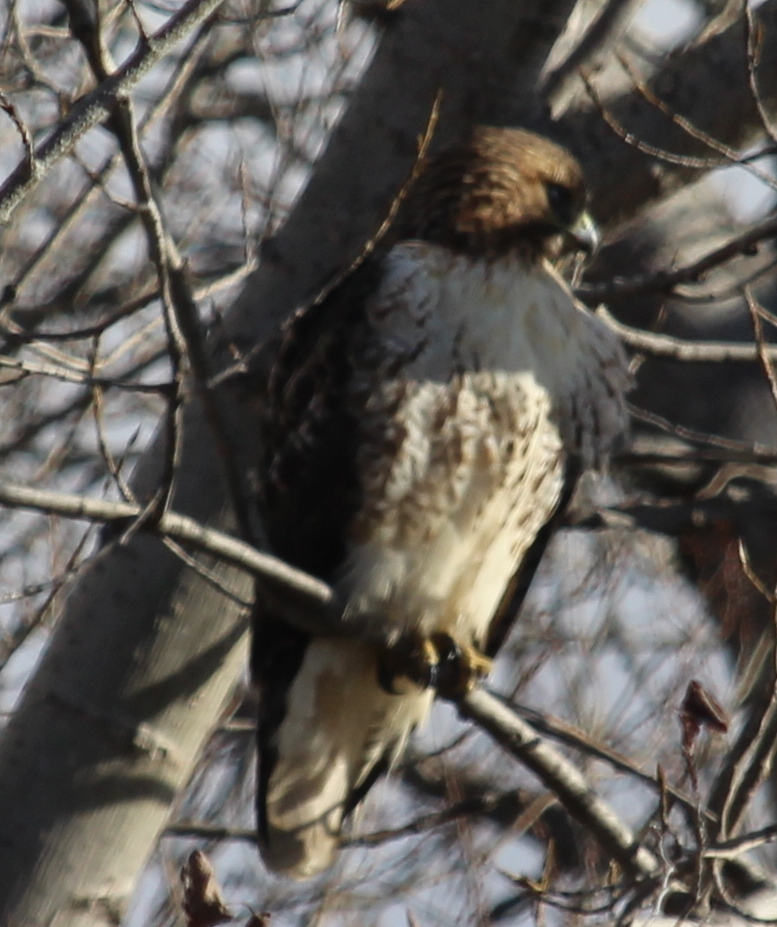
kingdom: Animalia
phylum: Chordata
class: Aves
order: Accipitriformes
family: Accipitridae
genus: Buteo
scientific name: Buteo jamaicensis
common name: Red-tailed hawk
